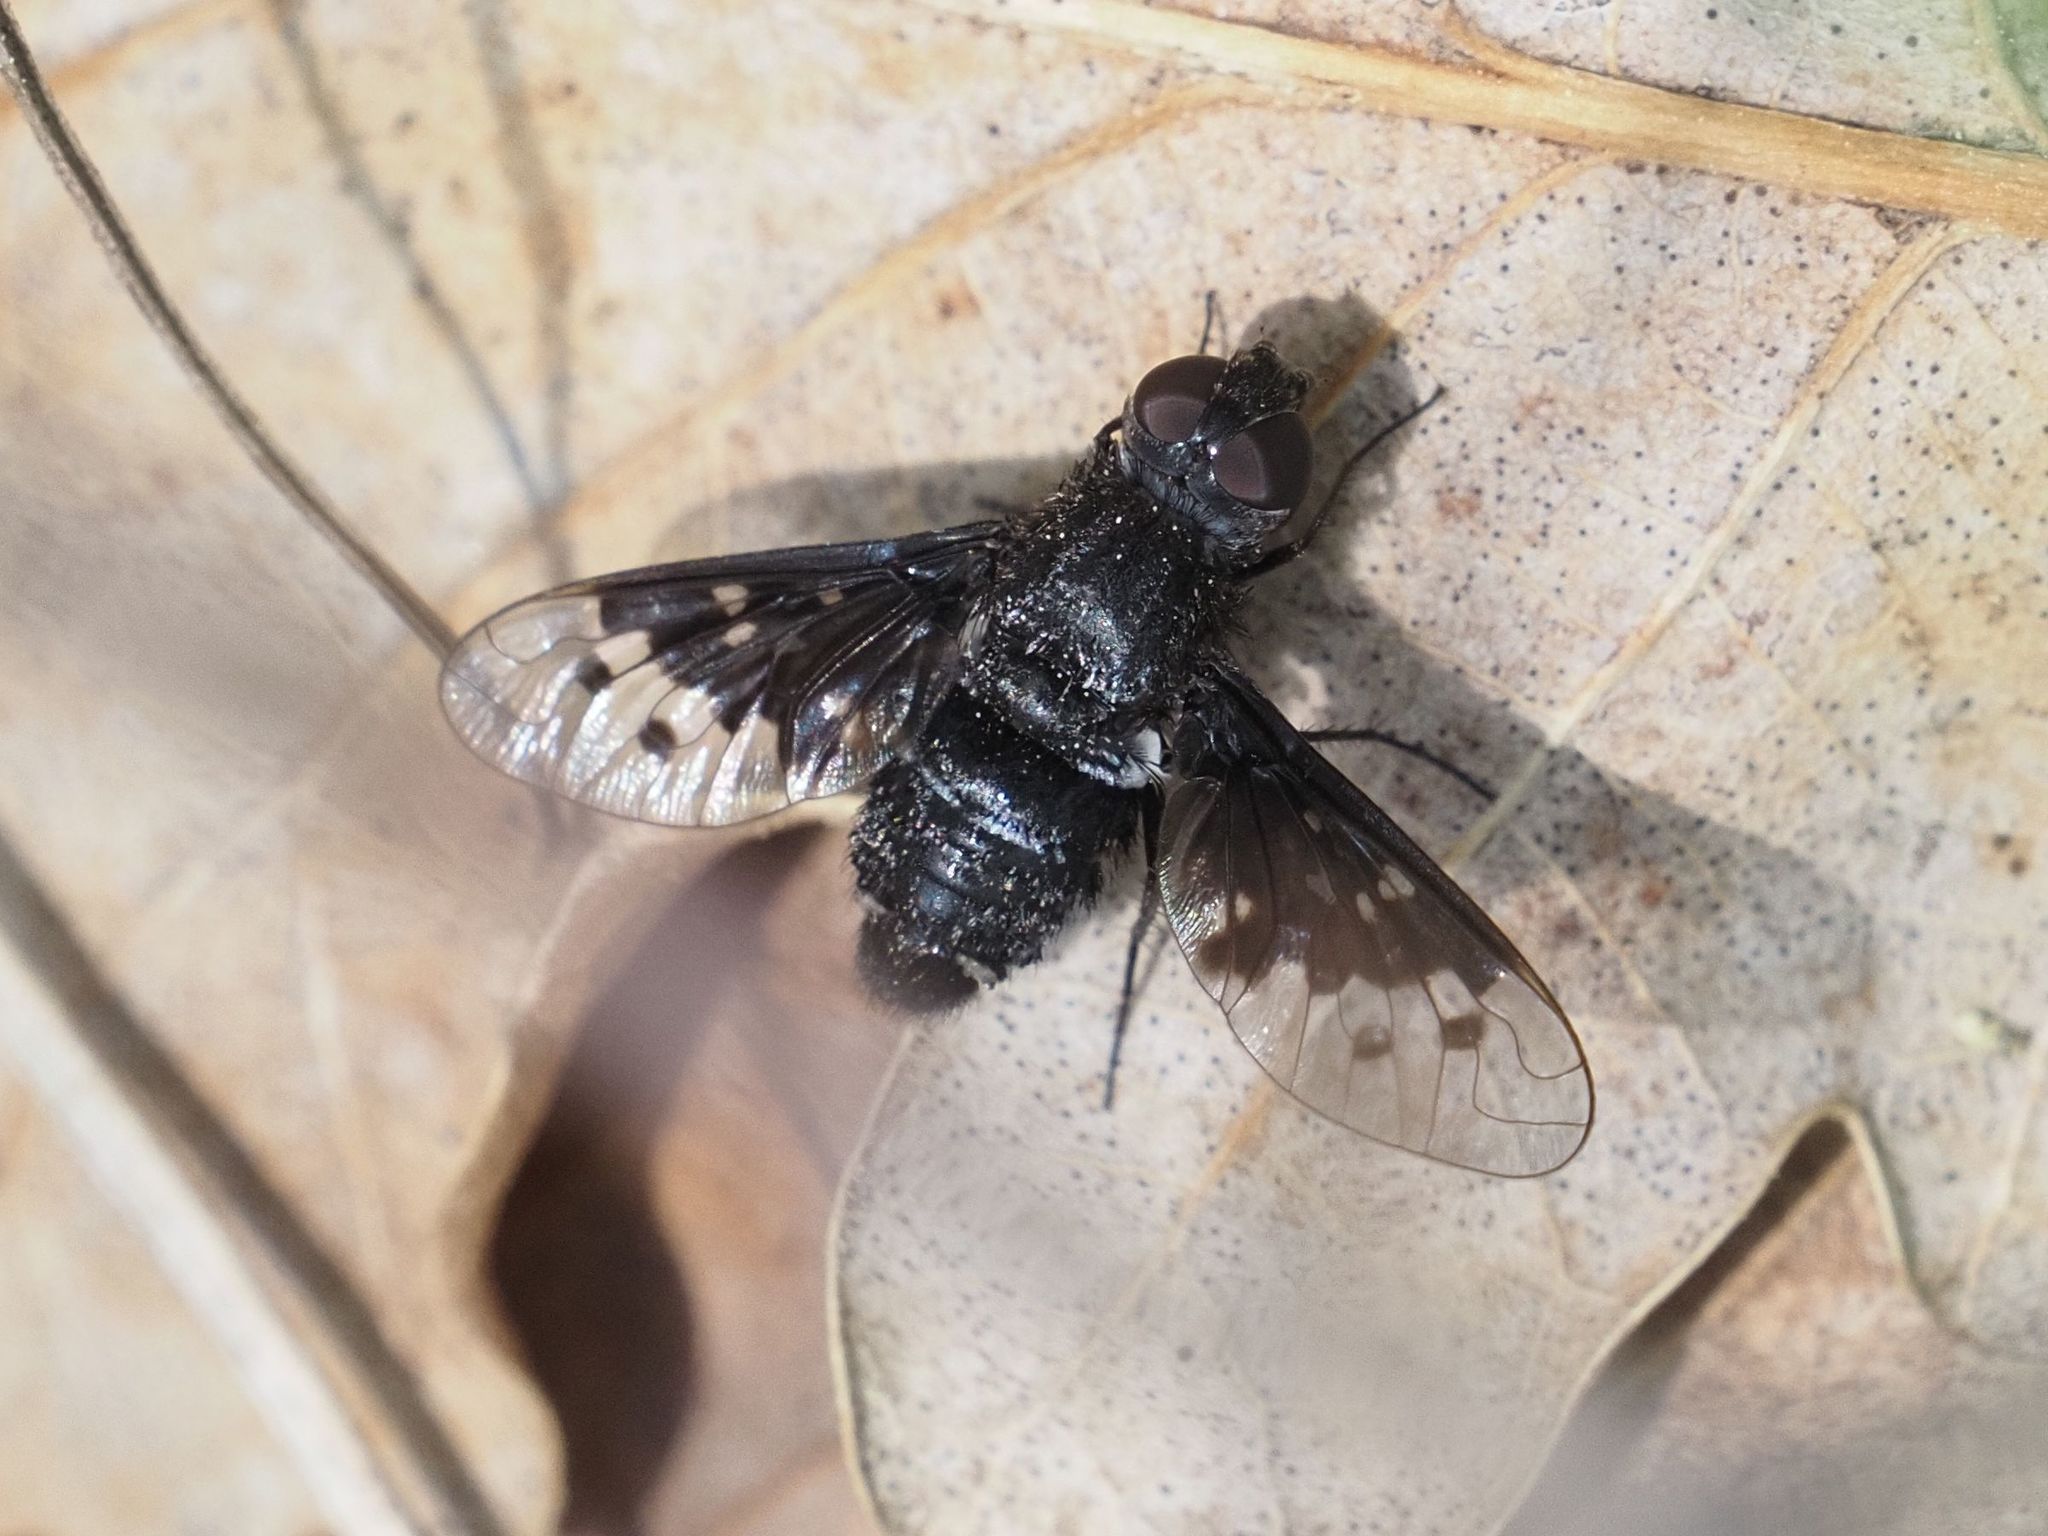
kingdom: Animalia
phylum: Arthropoda
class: Insecta
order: Diptera
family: Bombyliidae
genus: Spogostylum
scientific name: Spogostylum aethiops
